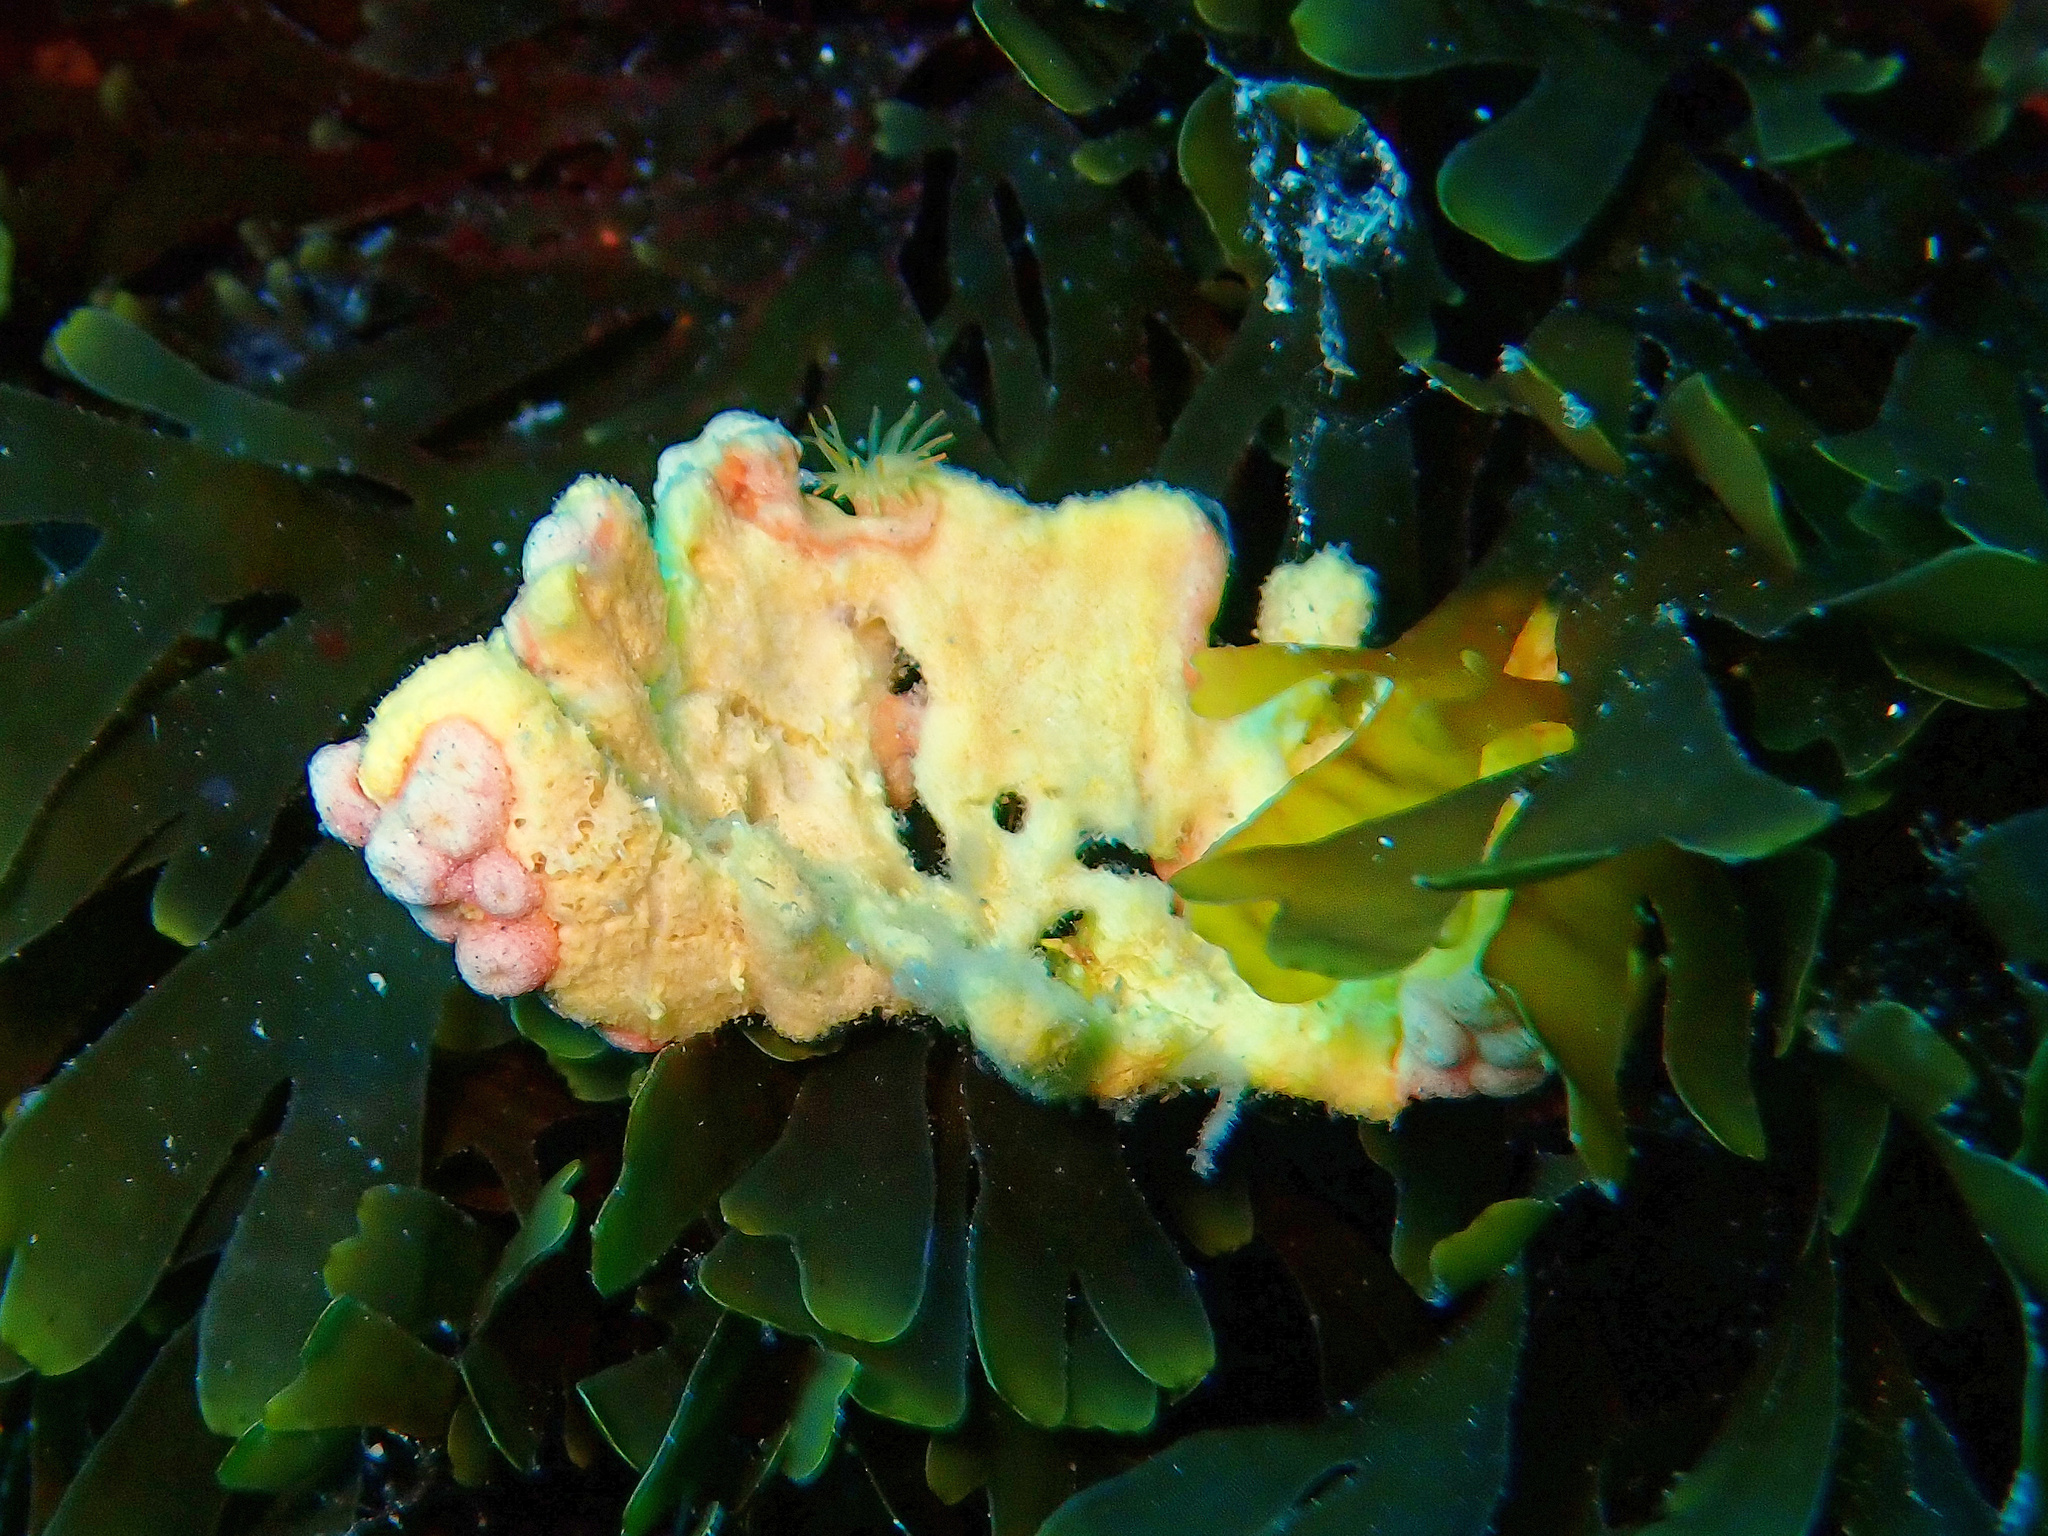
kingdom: Animalia
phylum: Porifera
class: Demospongiae
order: Axinellida
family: Axinellidae
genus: Axinella
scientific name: Axinella damicornis
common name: Crumpled duster sponge
